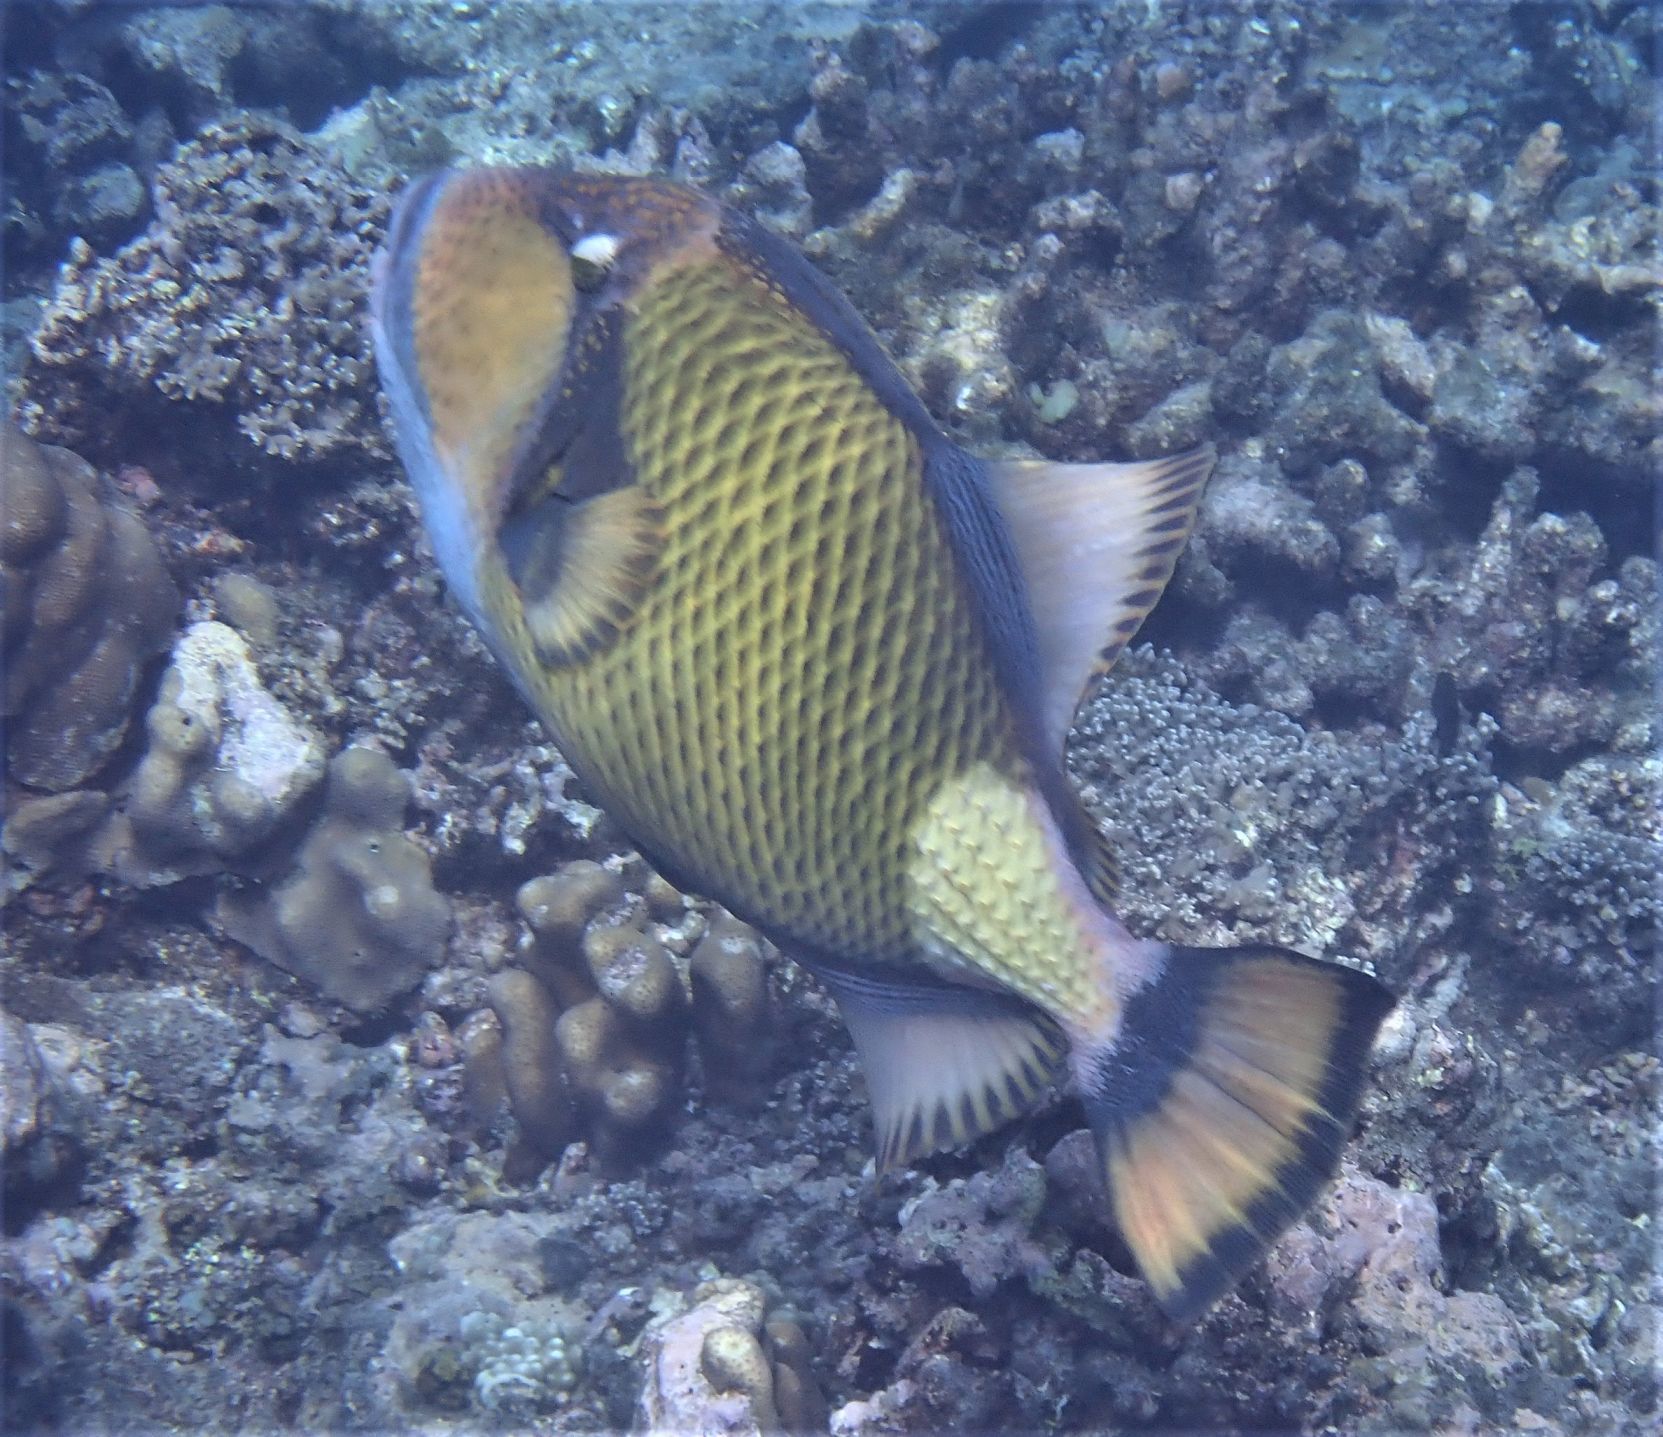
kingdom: Animalia
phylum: Chordata
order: Tetraodontiformes
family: Balistidae
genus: Balistoides
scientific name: Balistoides viridescens
